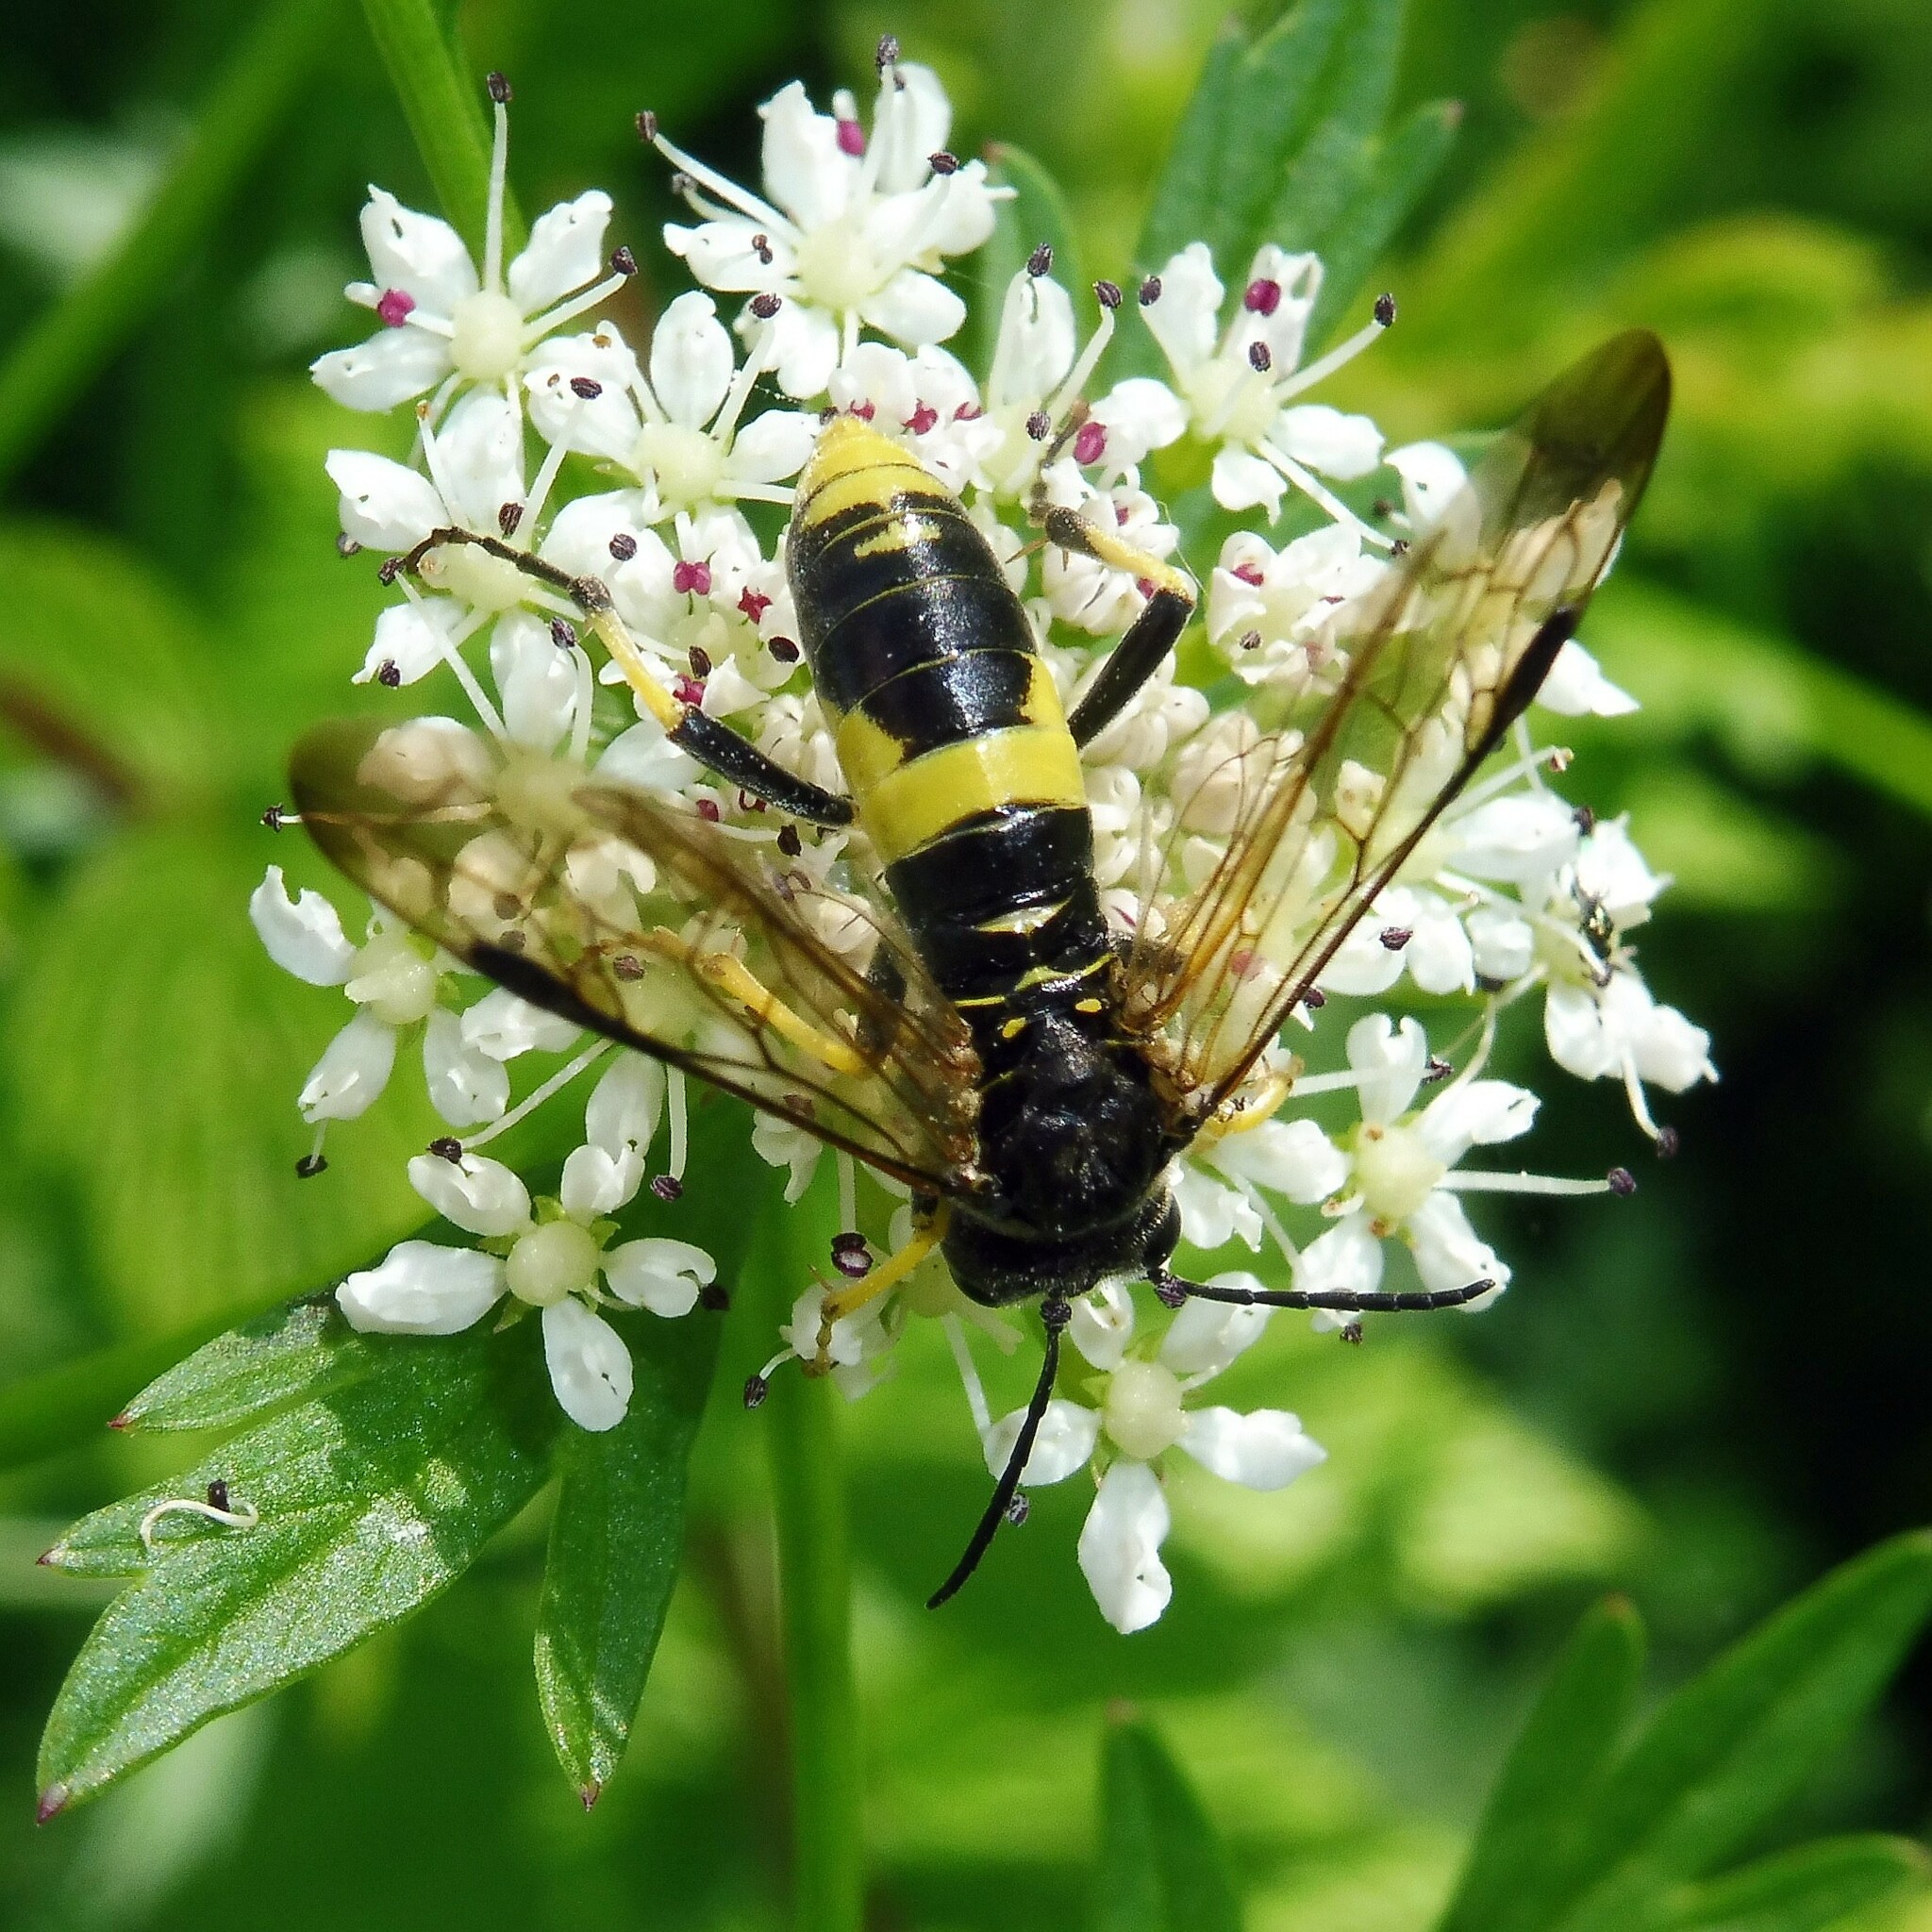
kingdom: Animalia
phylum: Arthropoda
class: Insecta
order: Hymenoptera
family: Tenthredinidae
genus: Tenthredo
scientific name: Tenthredo temula
